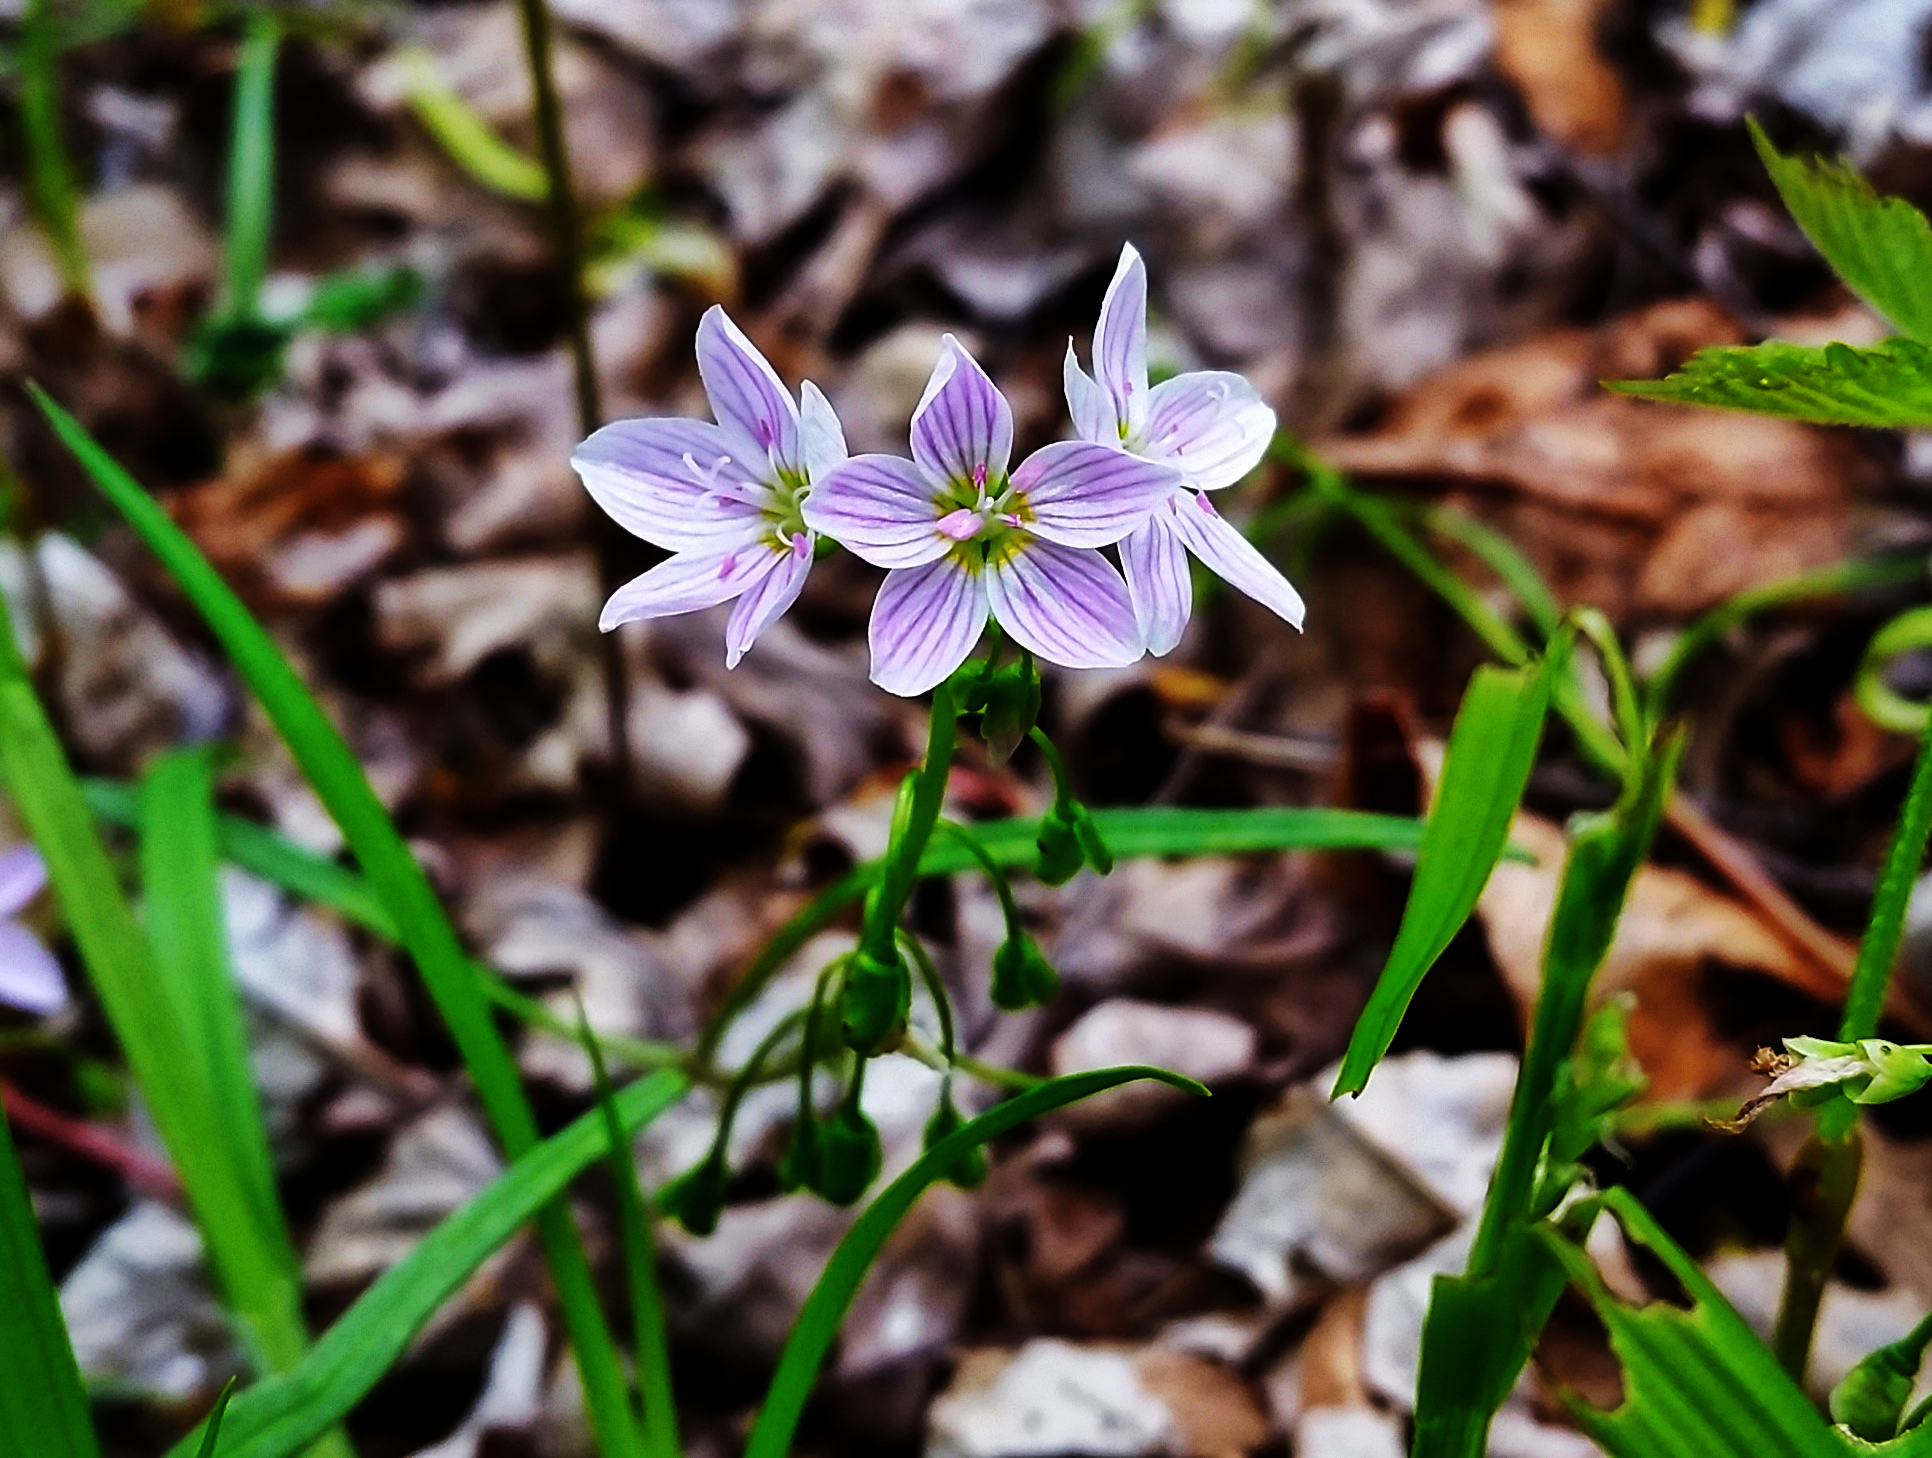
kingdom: Plantae
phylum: Tracheophyta
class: Magnoliopsida
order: Caryophyllales
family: Montiaceae
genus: Claytonia
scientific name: Claytonia virginica
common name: Virginia springbeauty
